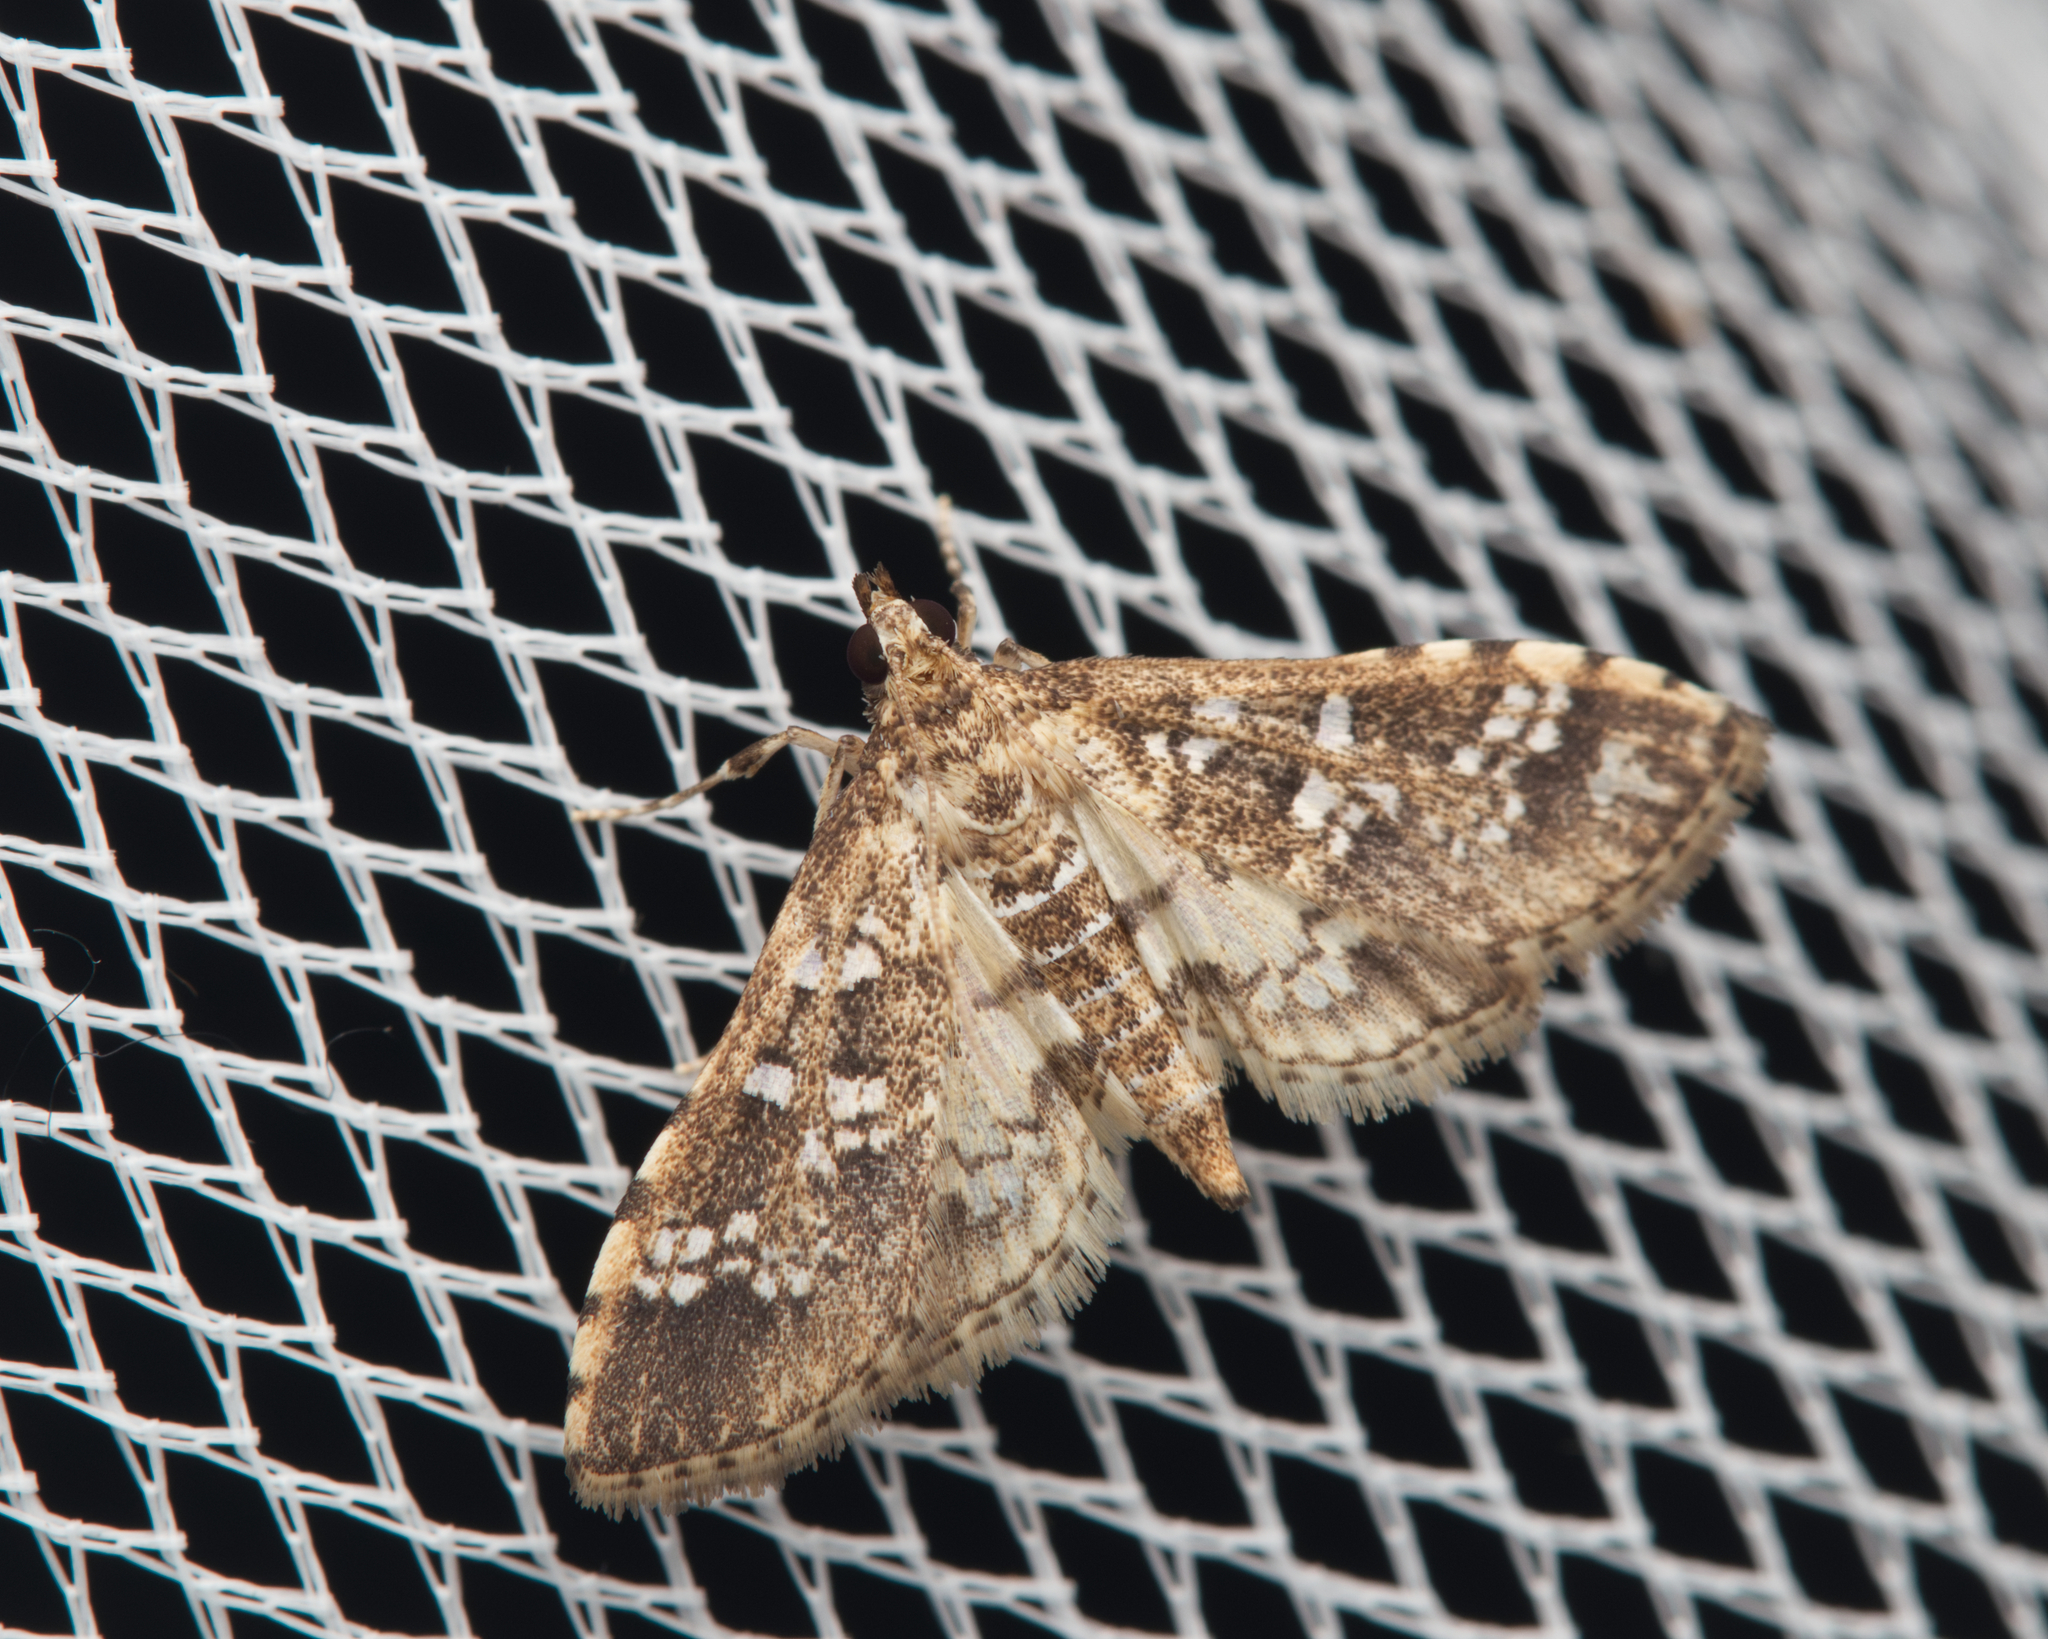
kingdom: Animalia
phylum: Arthropoda
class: Insecta
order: Lepidoptera
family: Crambidae
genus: Samea
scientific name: Samea multiplicalis
